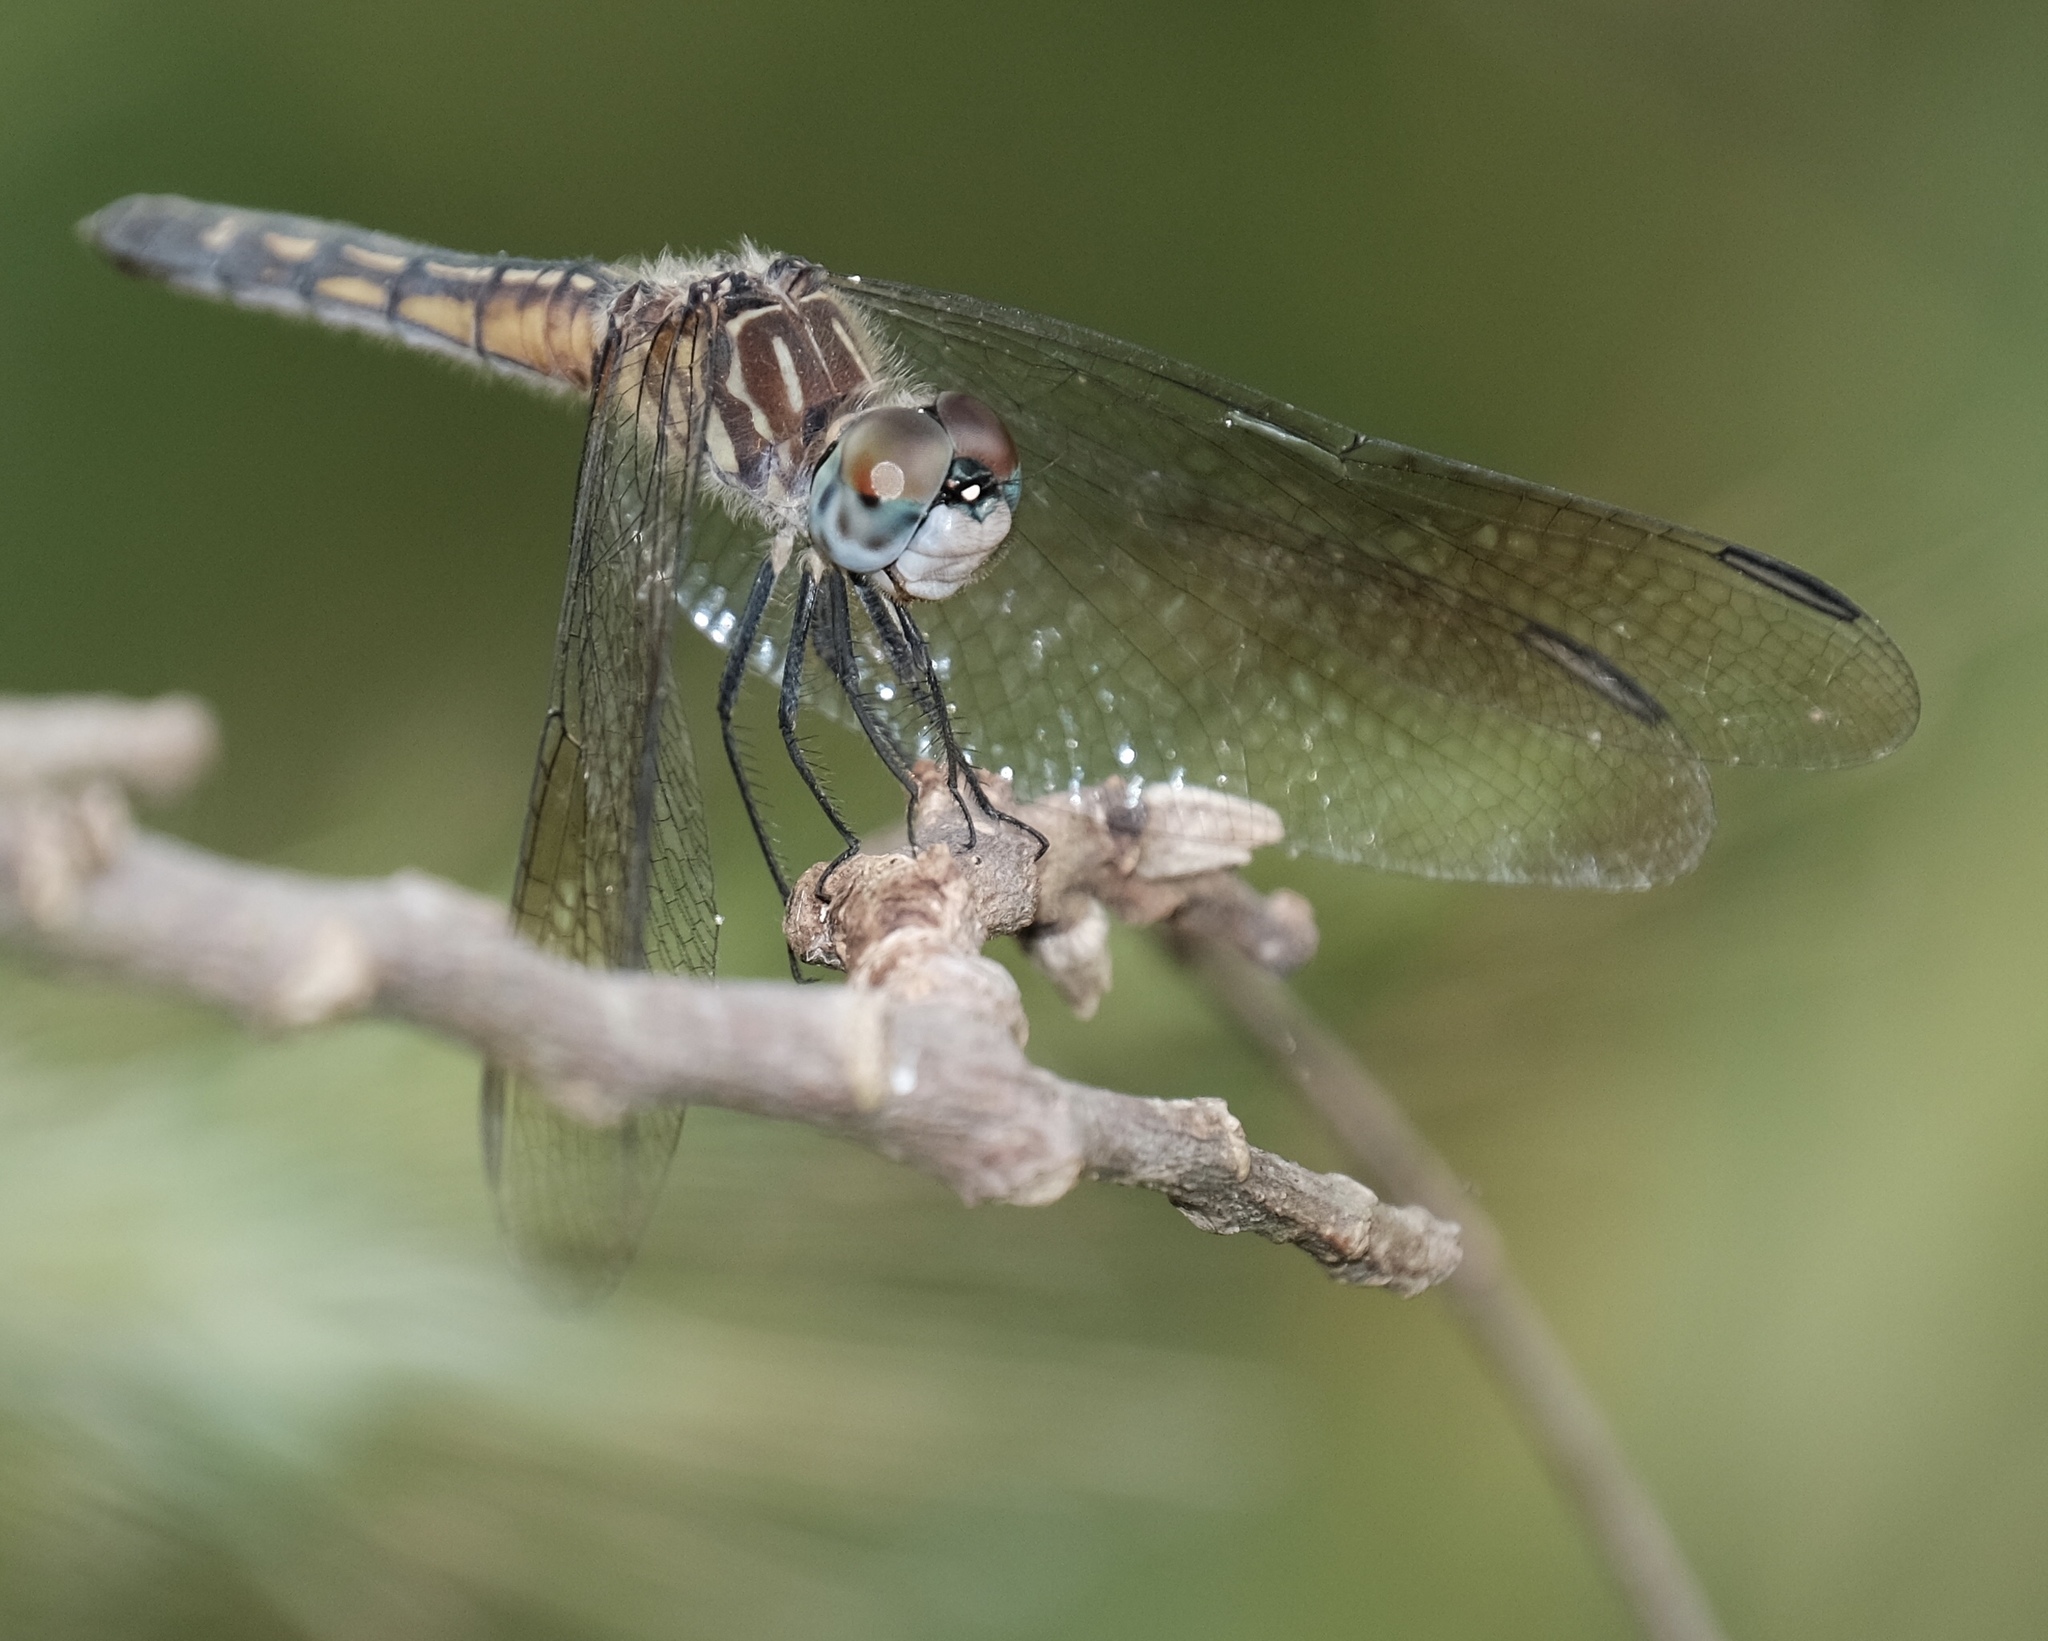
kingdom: Animalia
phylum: Arthropoda
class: Insecta
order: Odonata
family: Libellulidae
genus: Pachydiplax
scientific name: Pachydiplax longipennis
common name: Blue dasher
